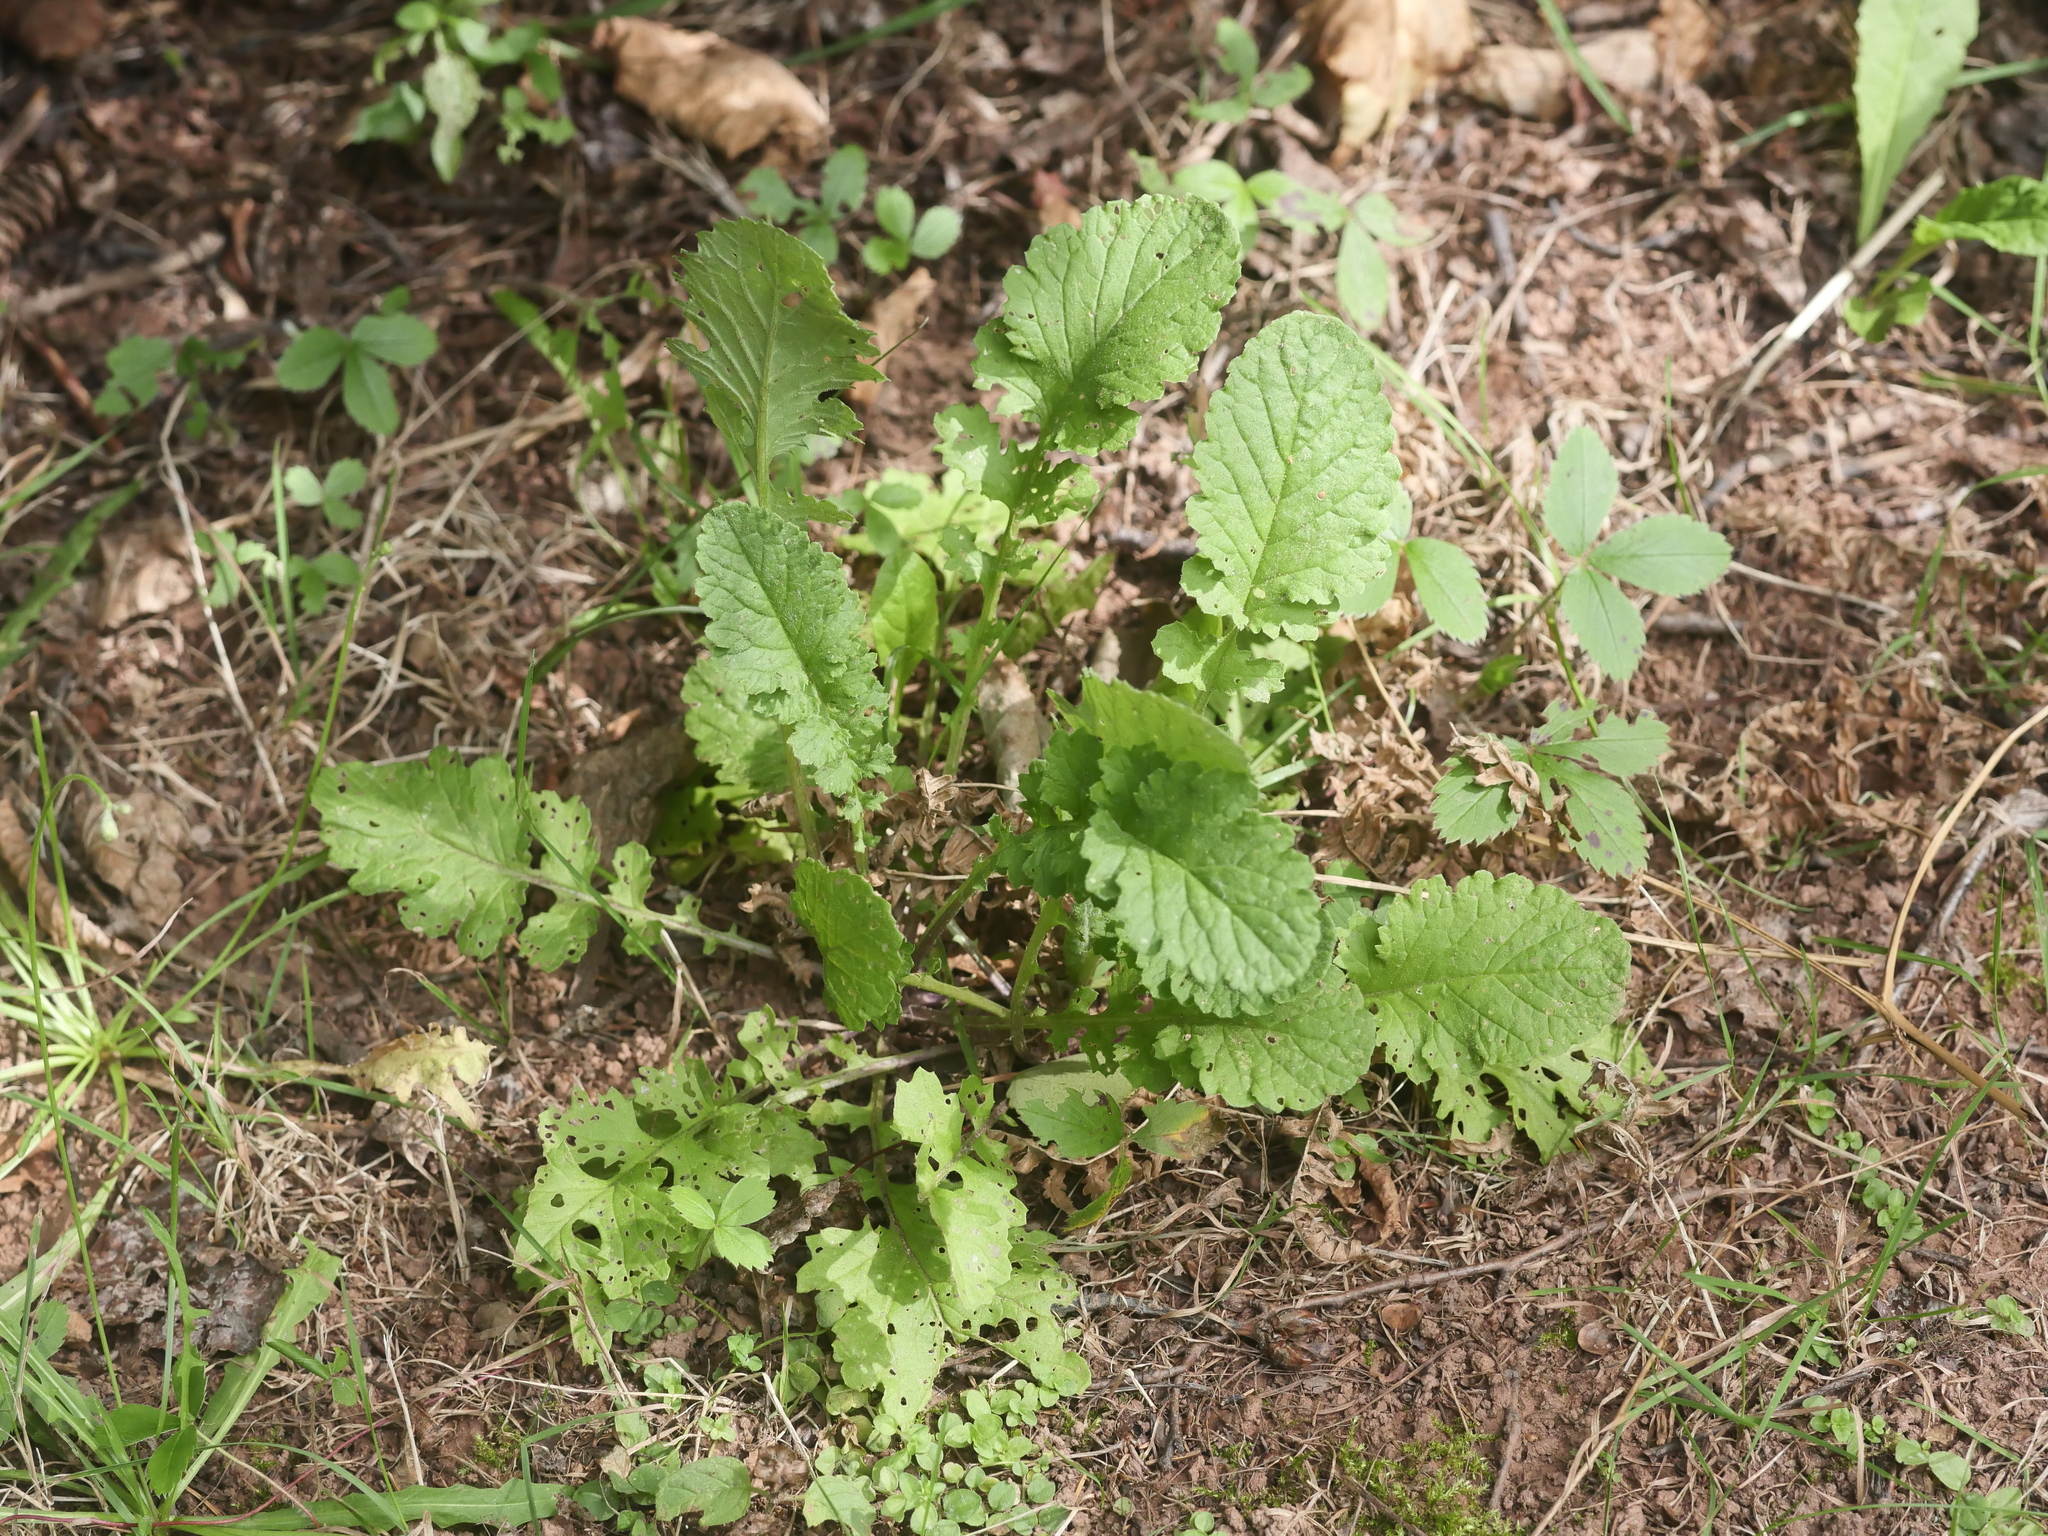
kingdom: Plantae
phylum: Tracheophyta
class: Magnoliopsida
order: Asterales
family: Asteraceae
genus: Jacobaea
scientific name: Jacobaea vulgaris
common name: Stinking willie
